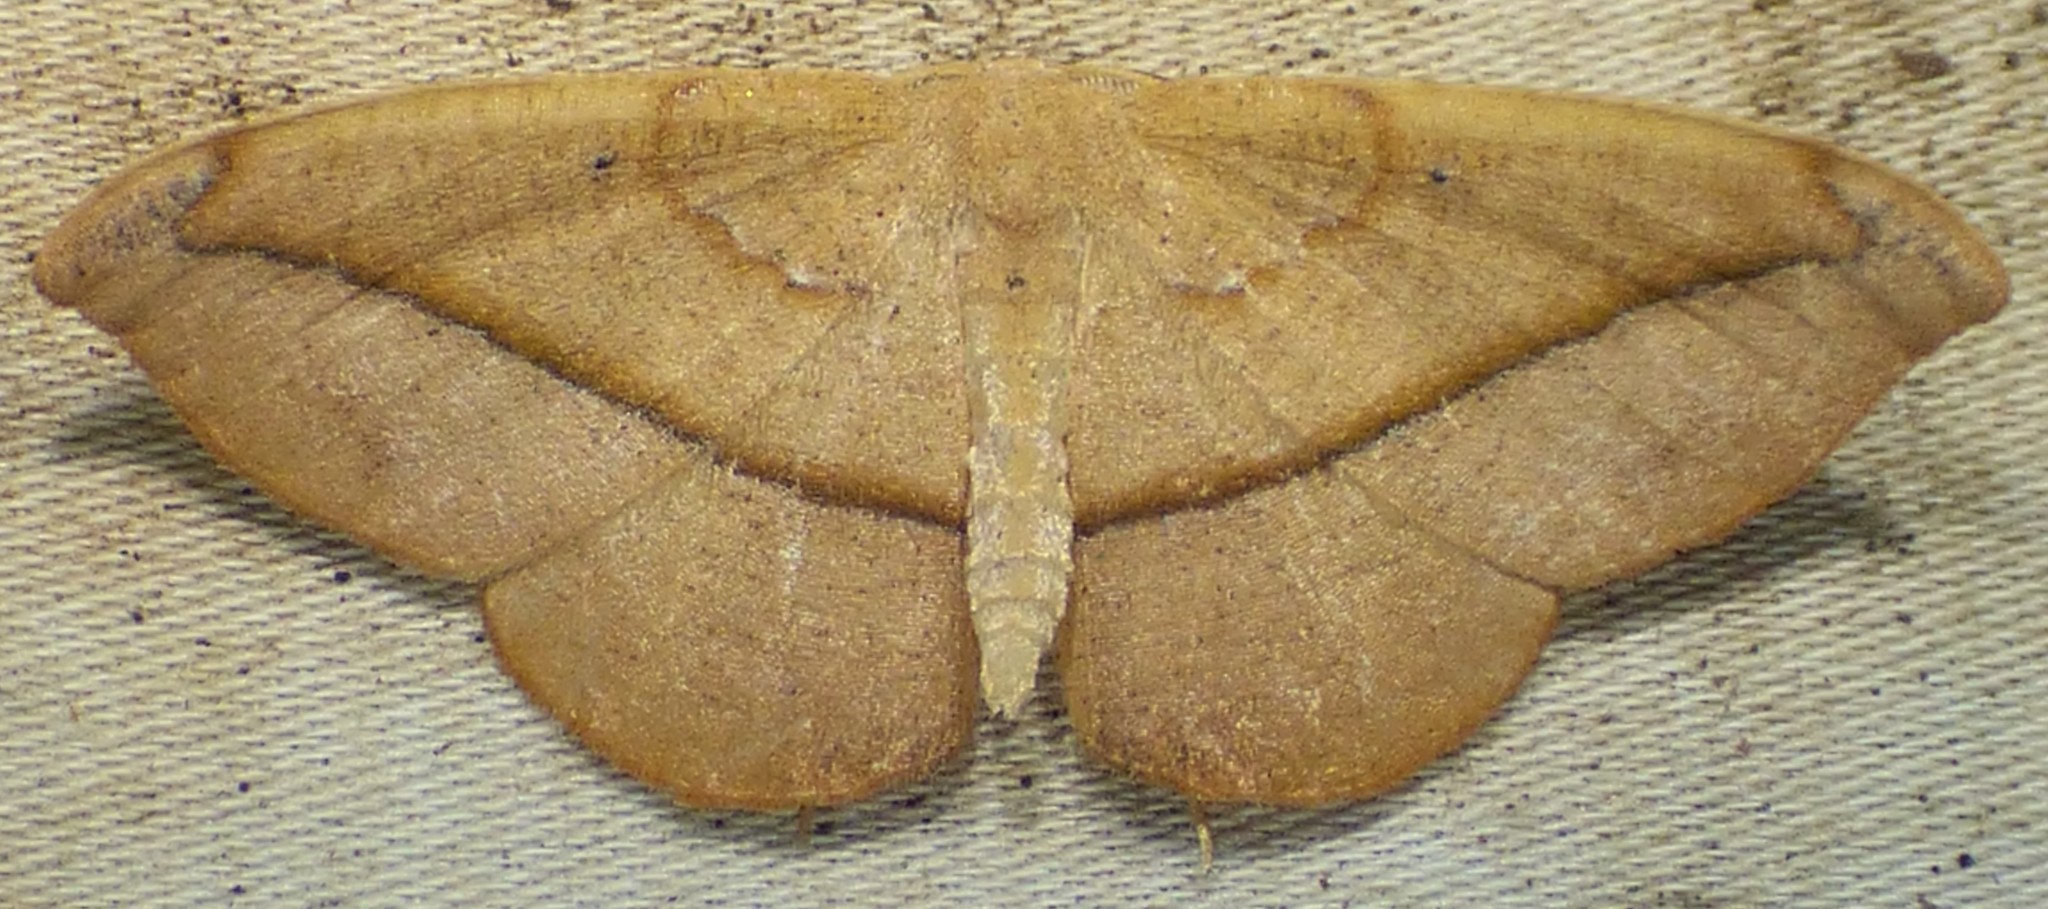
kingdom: Animalia
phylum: Arthropoda
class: Insecta
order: Lepidoptera
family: Geometridae
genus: Patalene
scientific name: Patalene olyzonaria
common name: Juniper geometer moth
